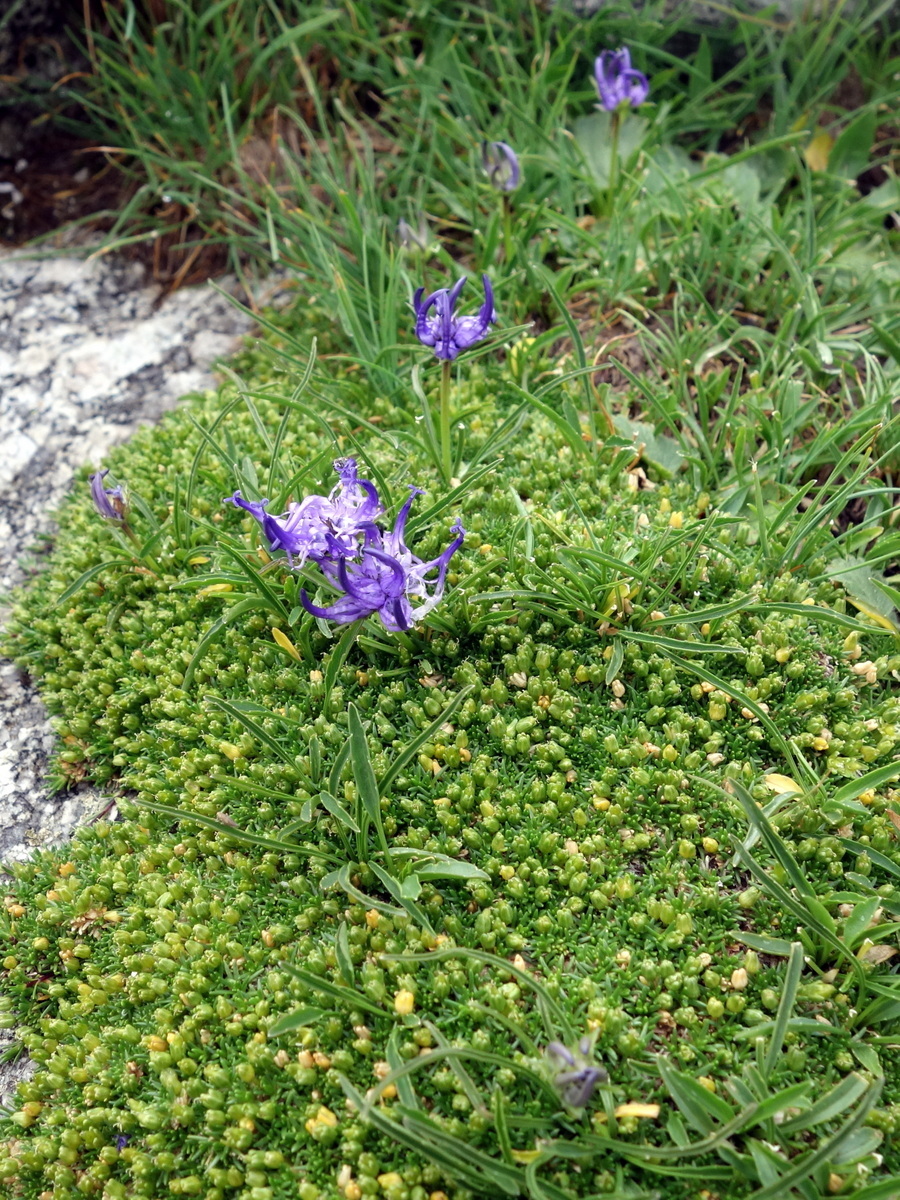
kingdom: Plantae
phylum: Tracheophyta
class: Magnoliopsida
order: Caryophyllales
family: Caryophyllaceae
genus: Cherleria
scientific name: Cherleria sedoides
